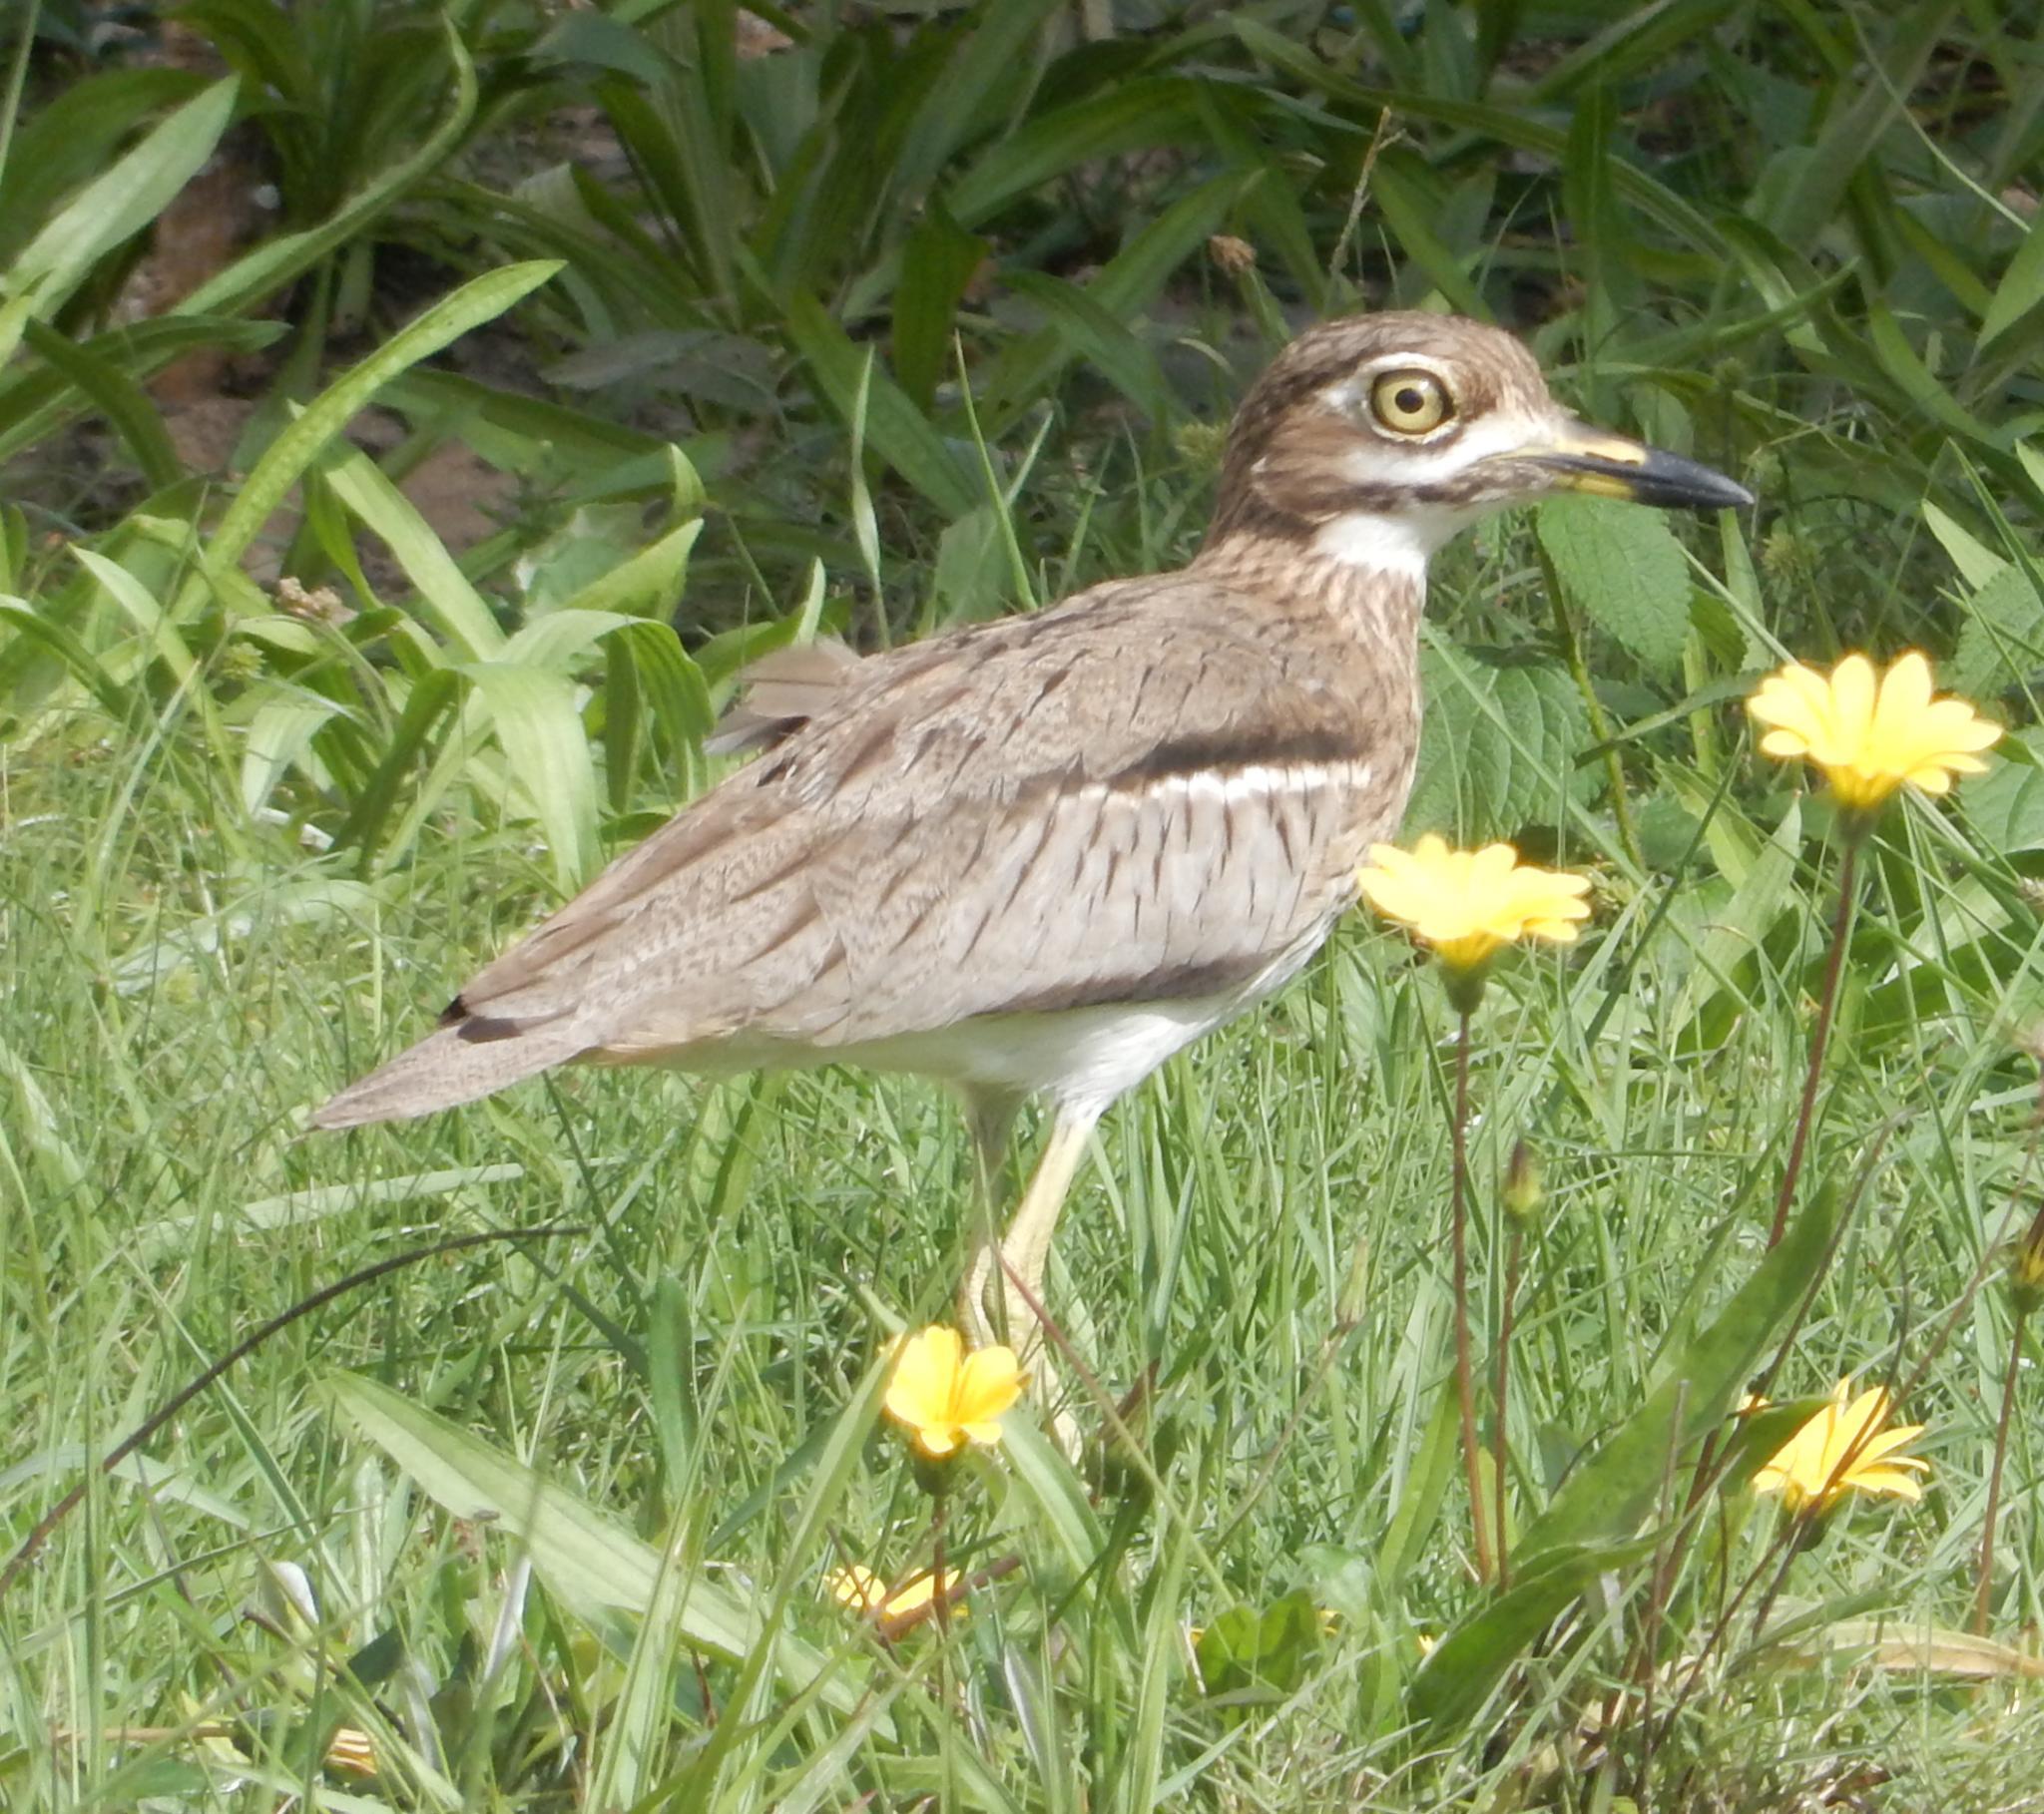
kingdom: Animalia
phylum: Chordata
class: Aves
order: Charadriiformes
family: Burhinidae
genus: Burhinus
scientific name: Burhinus vermiculatus
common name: Water thick-knee
